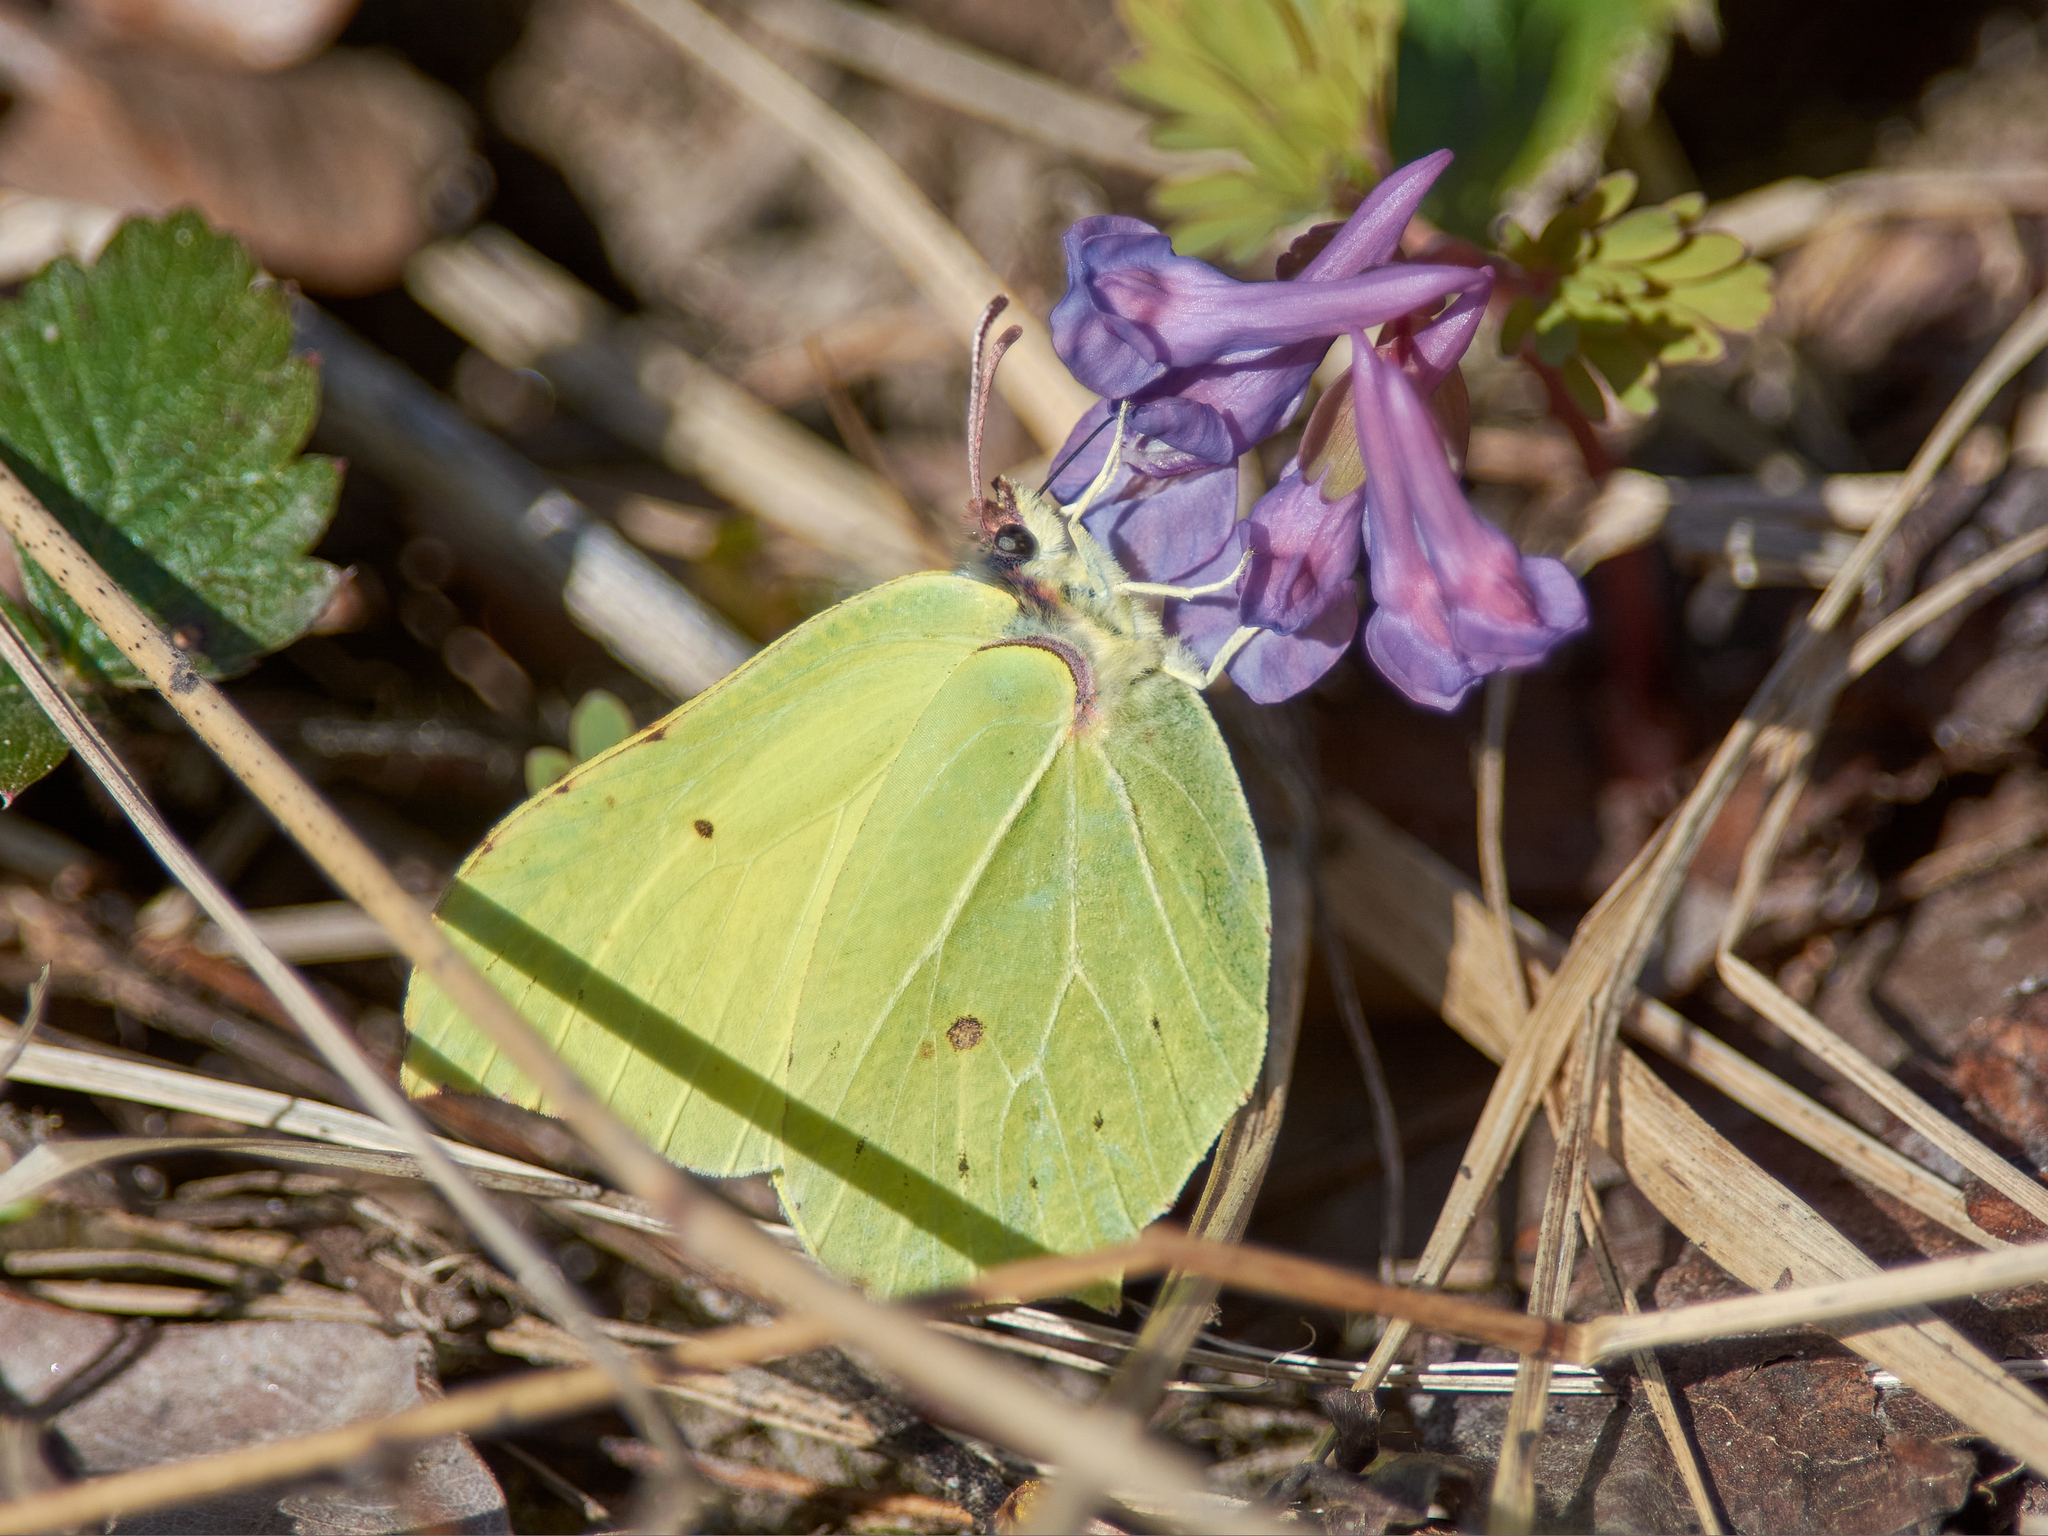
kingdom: Animalia
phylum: Arthropoda
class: Insecta
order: Lepidoptera
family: Pieridae
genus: Gonepteryx
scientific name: Gonepteryx rhamni
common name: Brimstone
